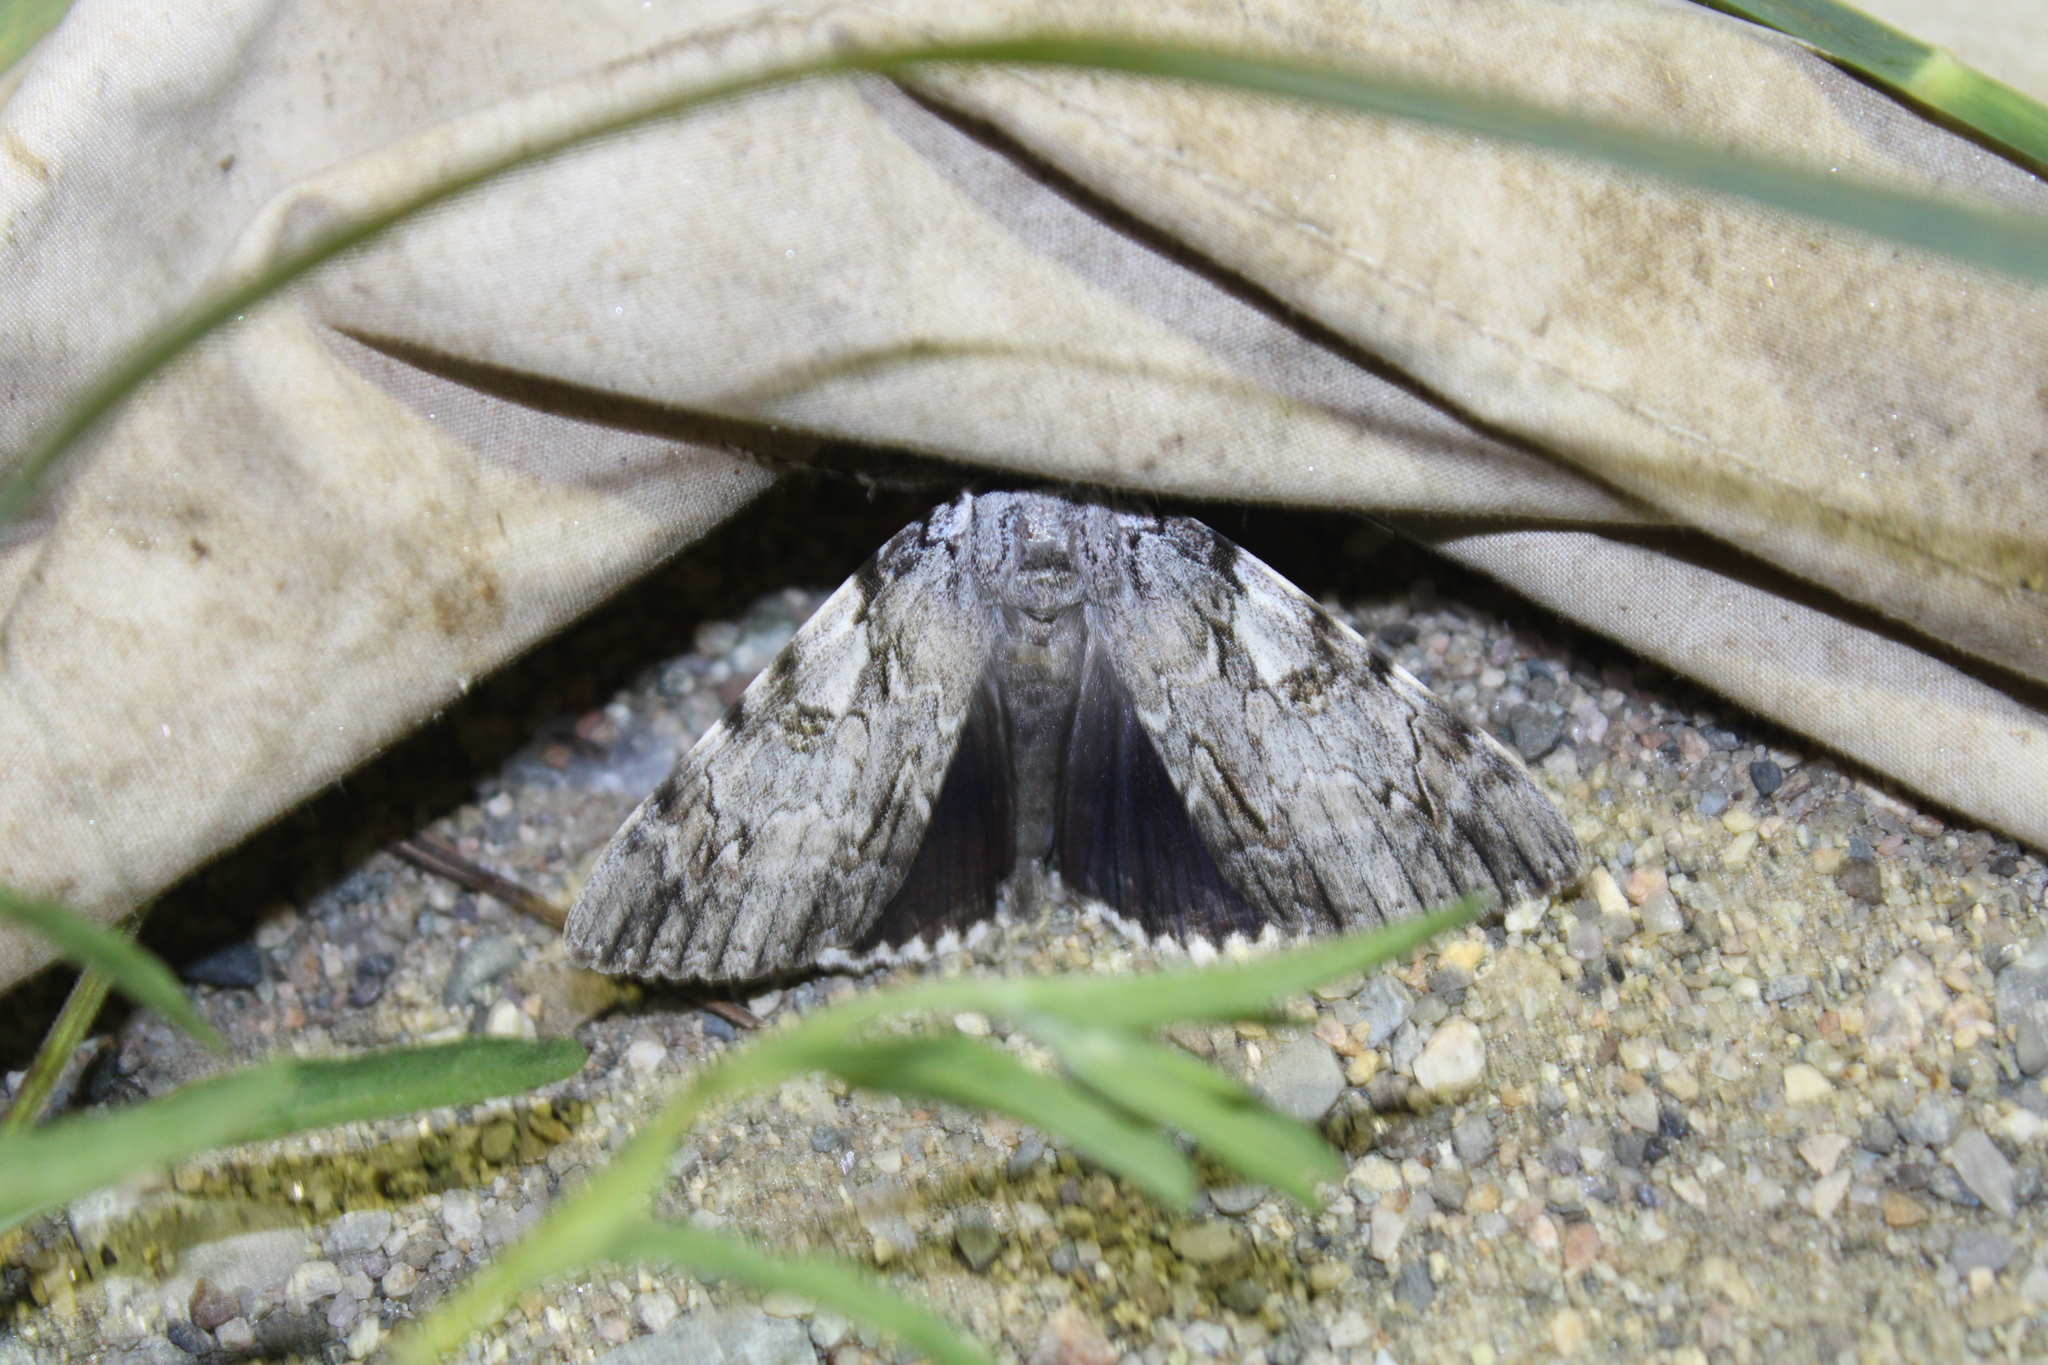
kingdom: Animalia
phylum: Arthropoda
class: Insecta
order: Lepidoptera
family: Erebidae
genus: Catocala
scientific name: Catocala dejecta
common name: Dejected underwing
